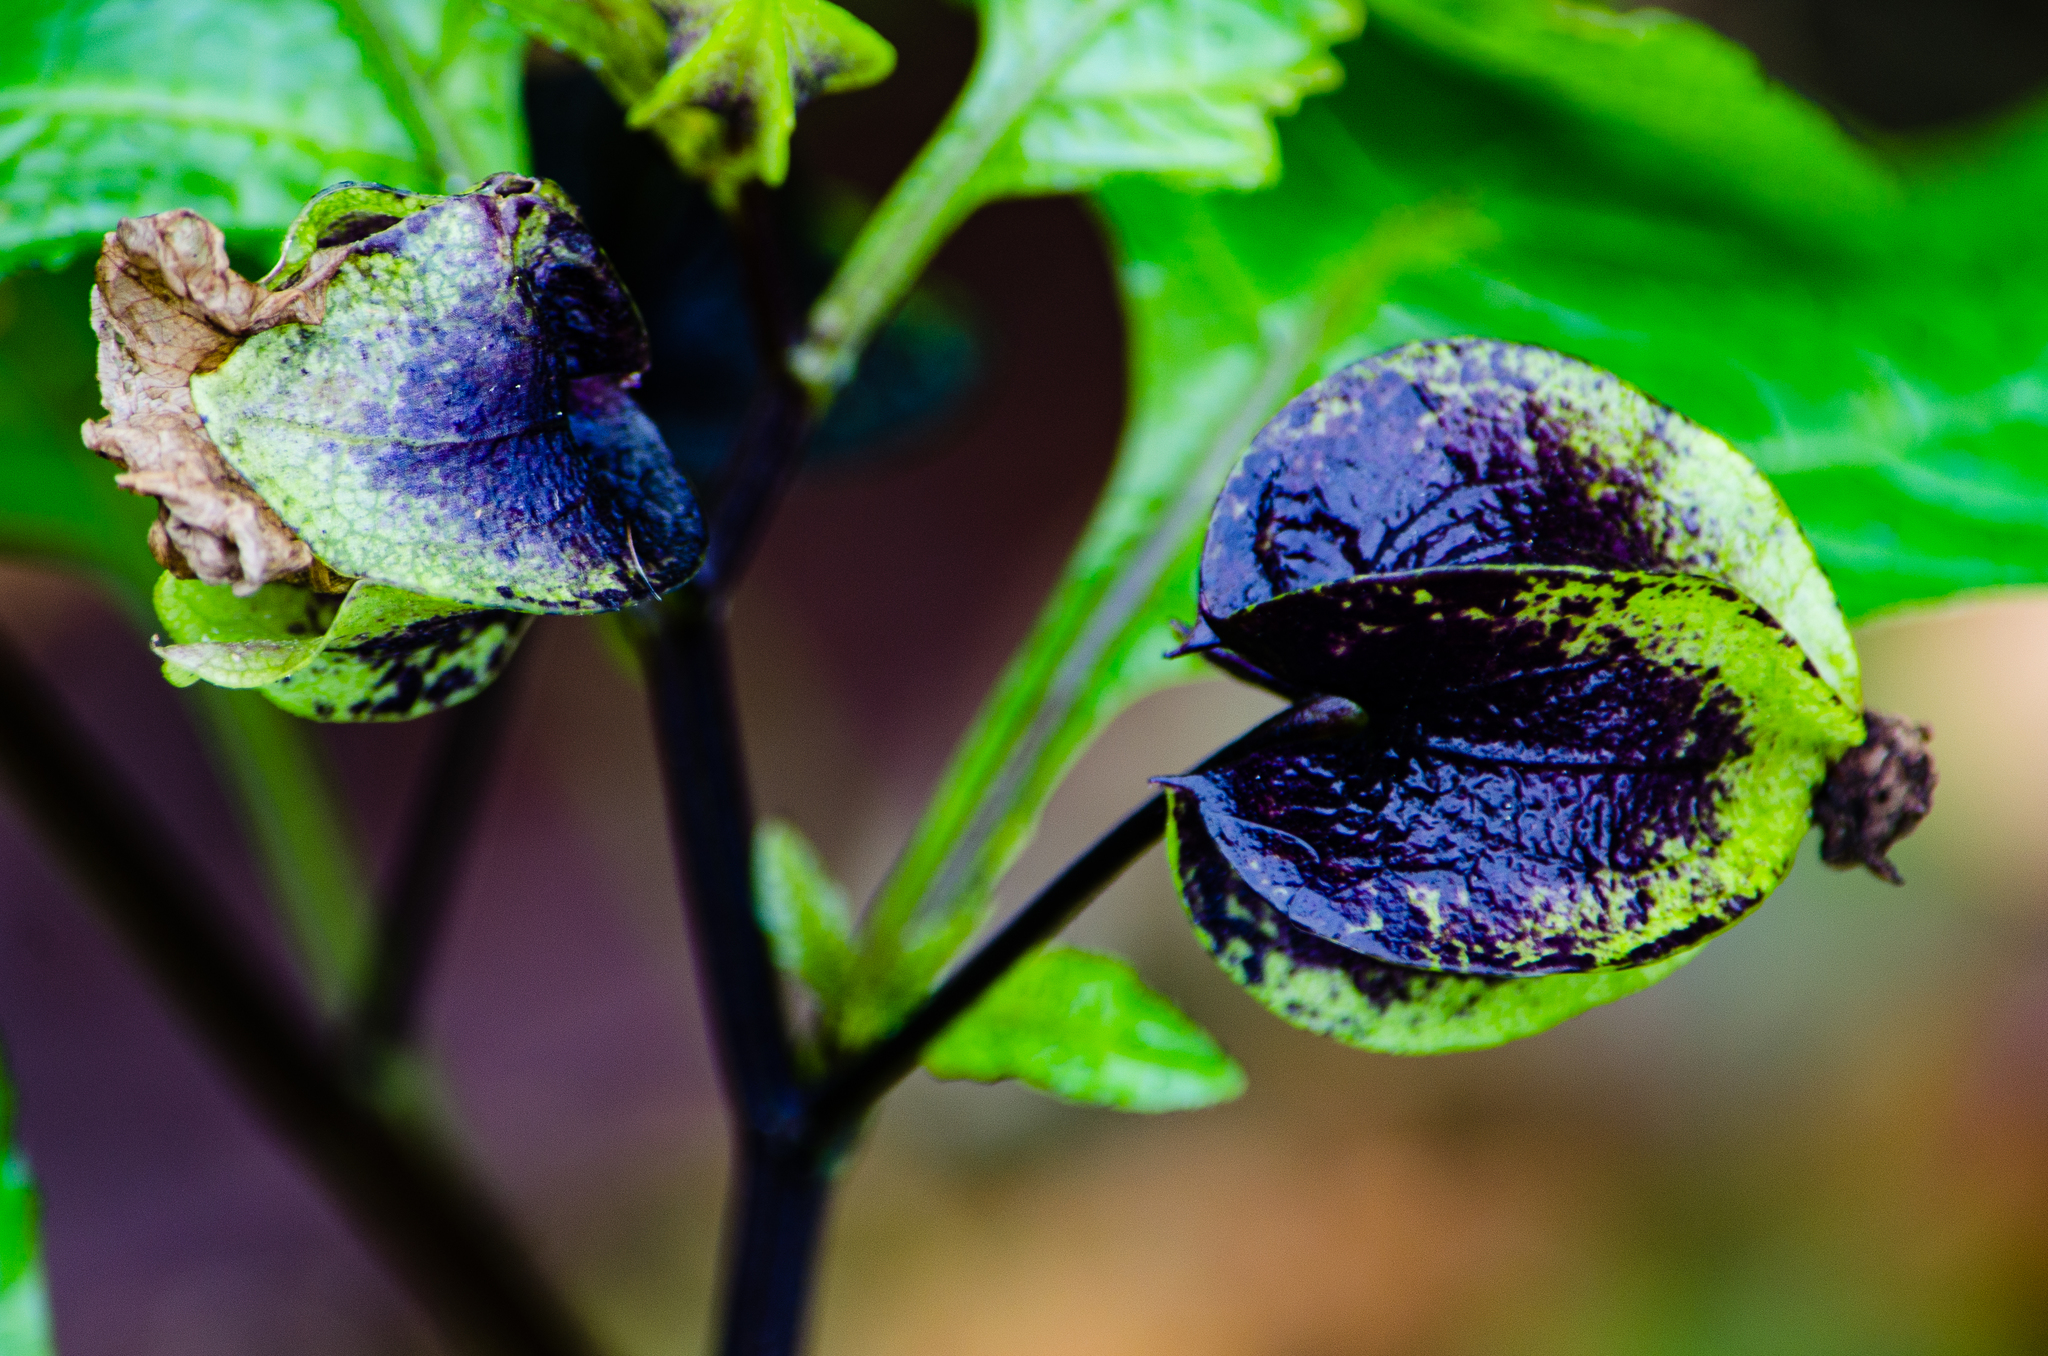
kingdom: Plantae
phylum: Tracheophyta
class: Magnoliopsida
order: Solanales
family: Solanaceae
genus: Nicandra
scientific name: Nicandra physalodes
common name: Apple-of-peru
